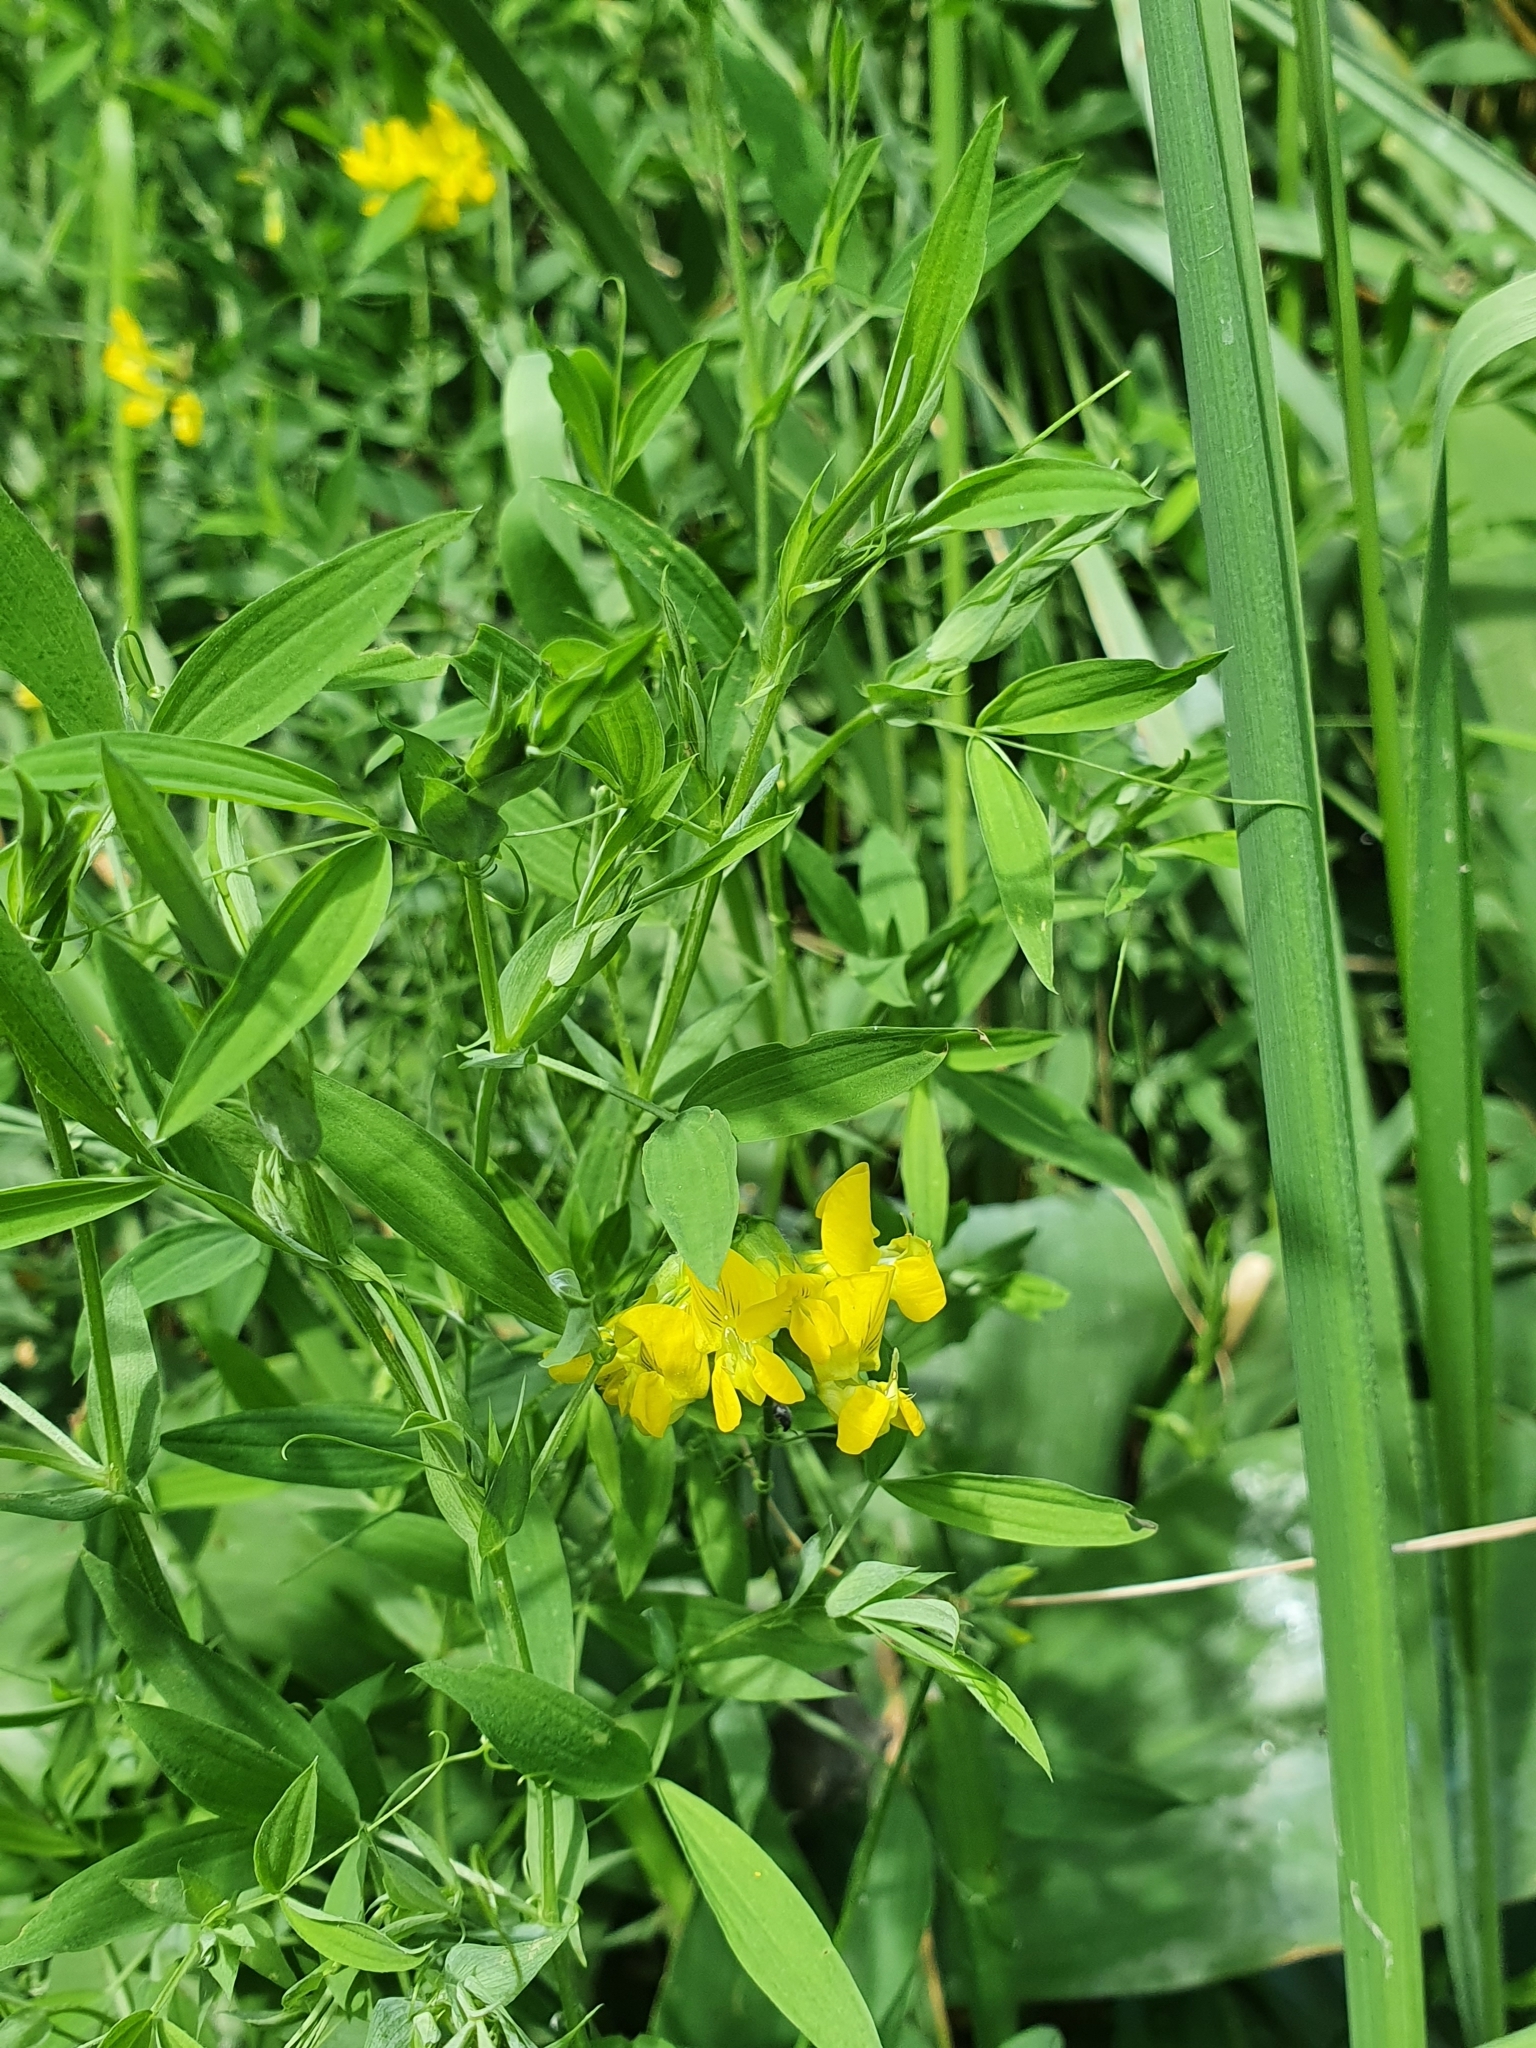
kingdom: Plantae
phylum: Tracheophyta
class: Magnoliopsida
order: Fabales
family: Fabaceae
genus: Lathyrus
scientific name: Lathyrus pratensis
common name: Meadow vetchling
